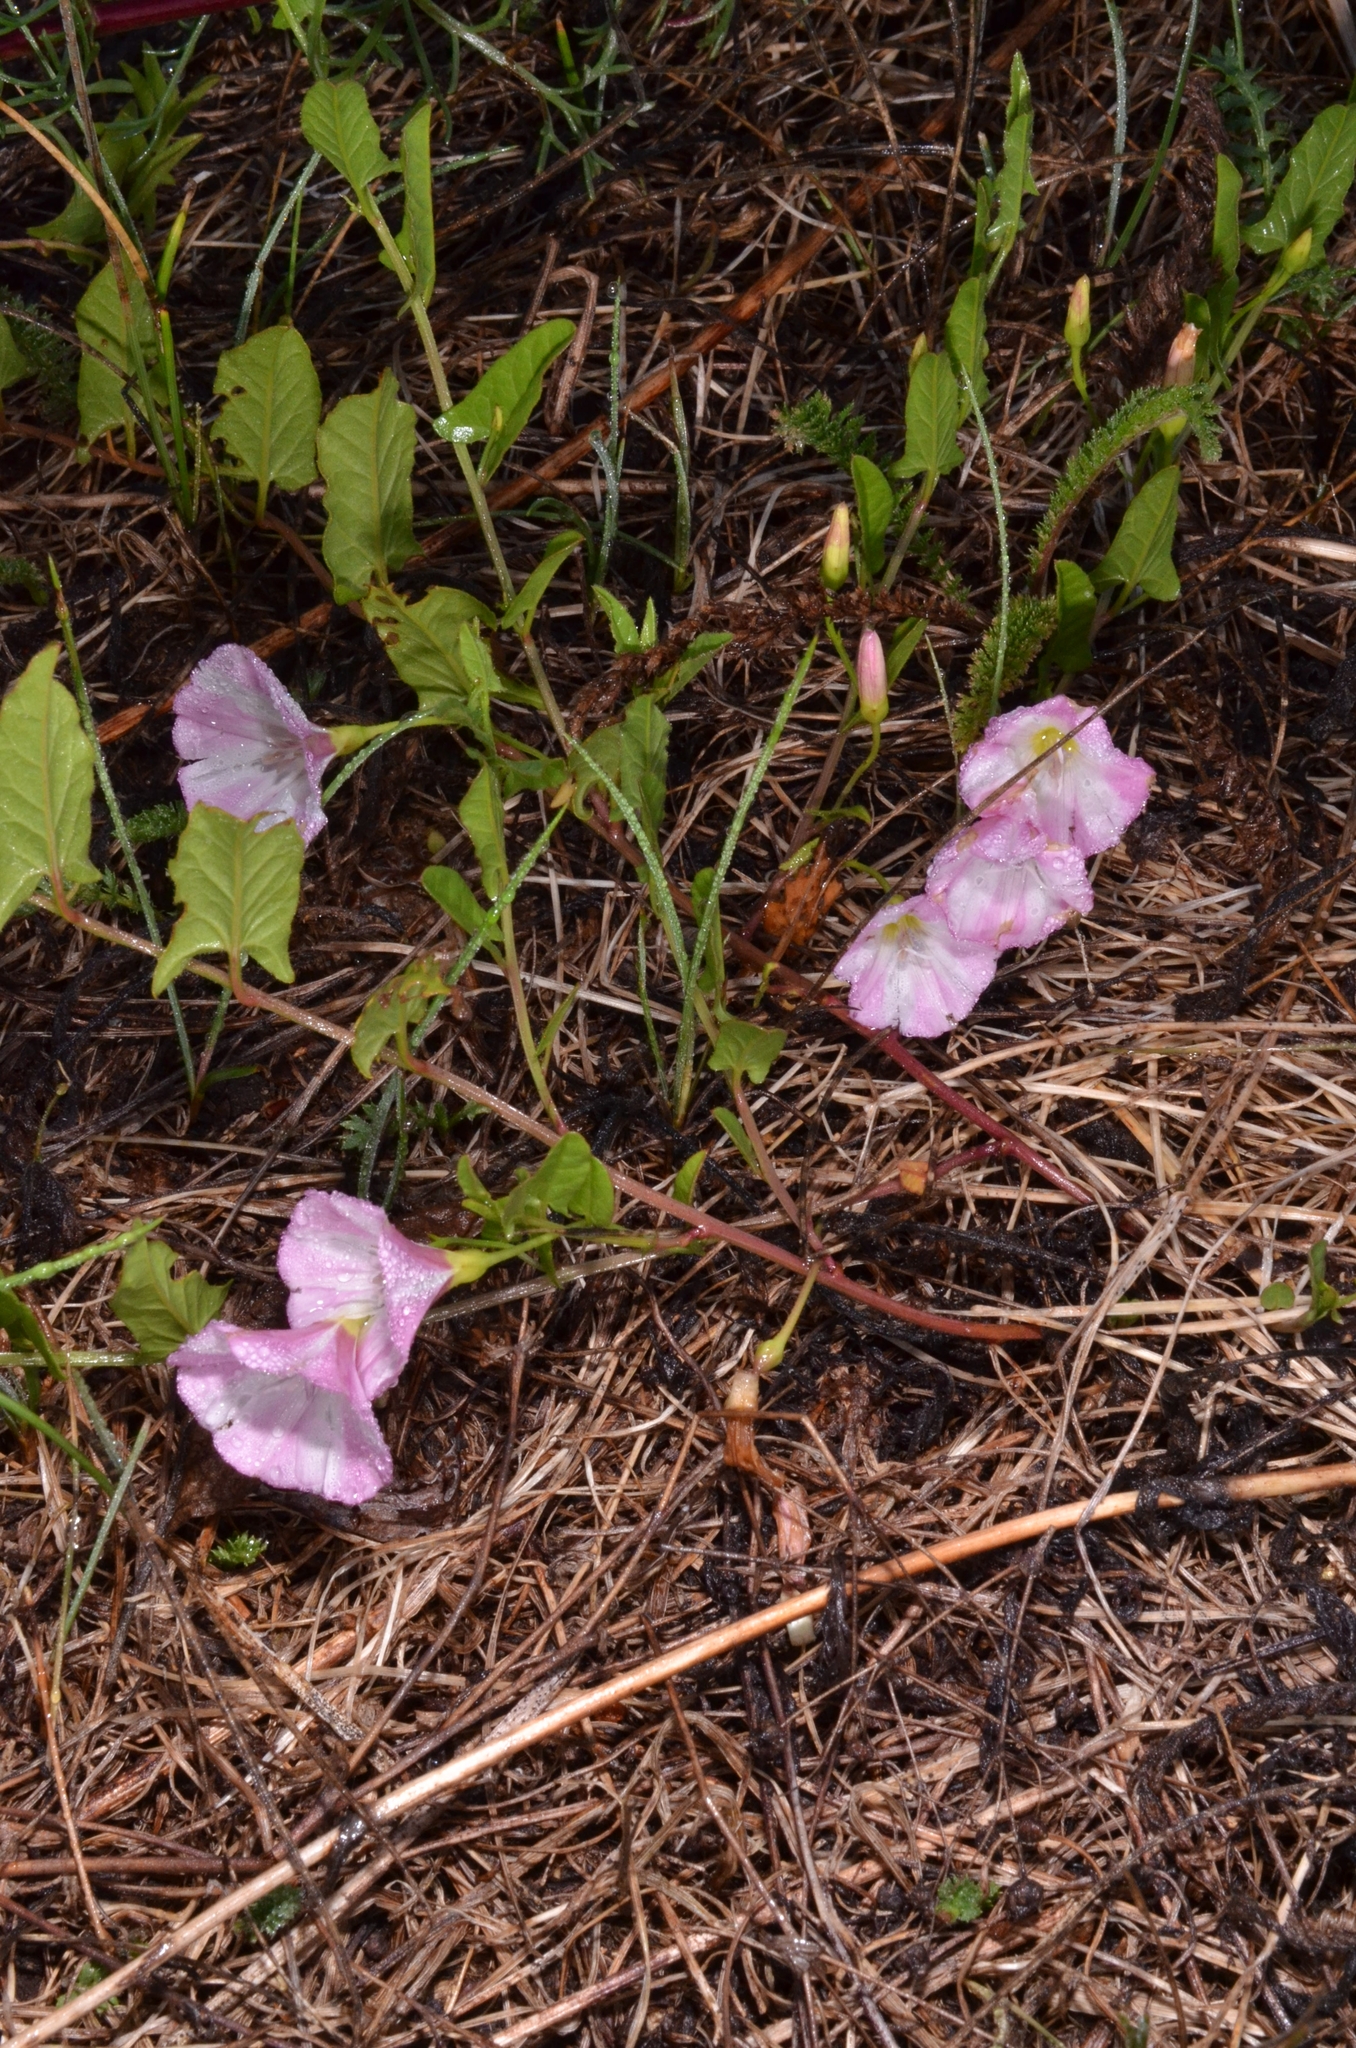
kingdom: Plantae
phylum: Tracheophyta
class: Magnoliopsida
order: Solanales
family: Convolvulaceae
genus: Convolvulus
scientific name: Convolvulus arvensis
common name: Field bindweed
